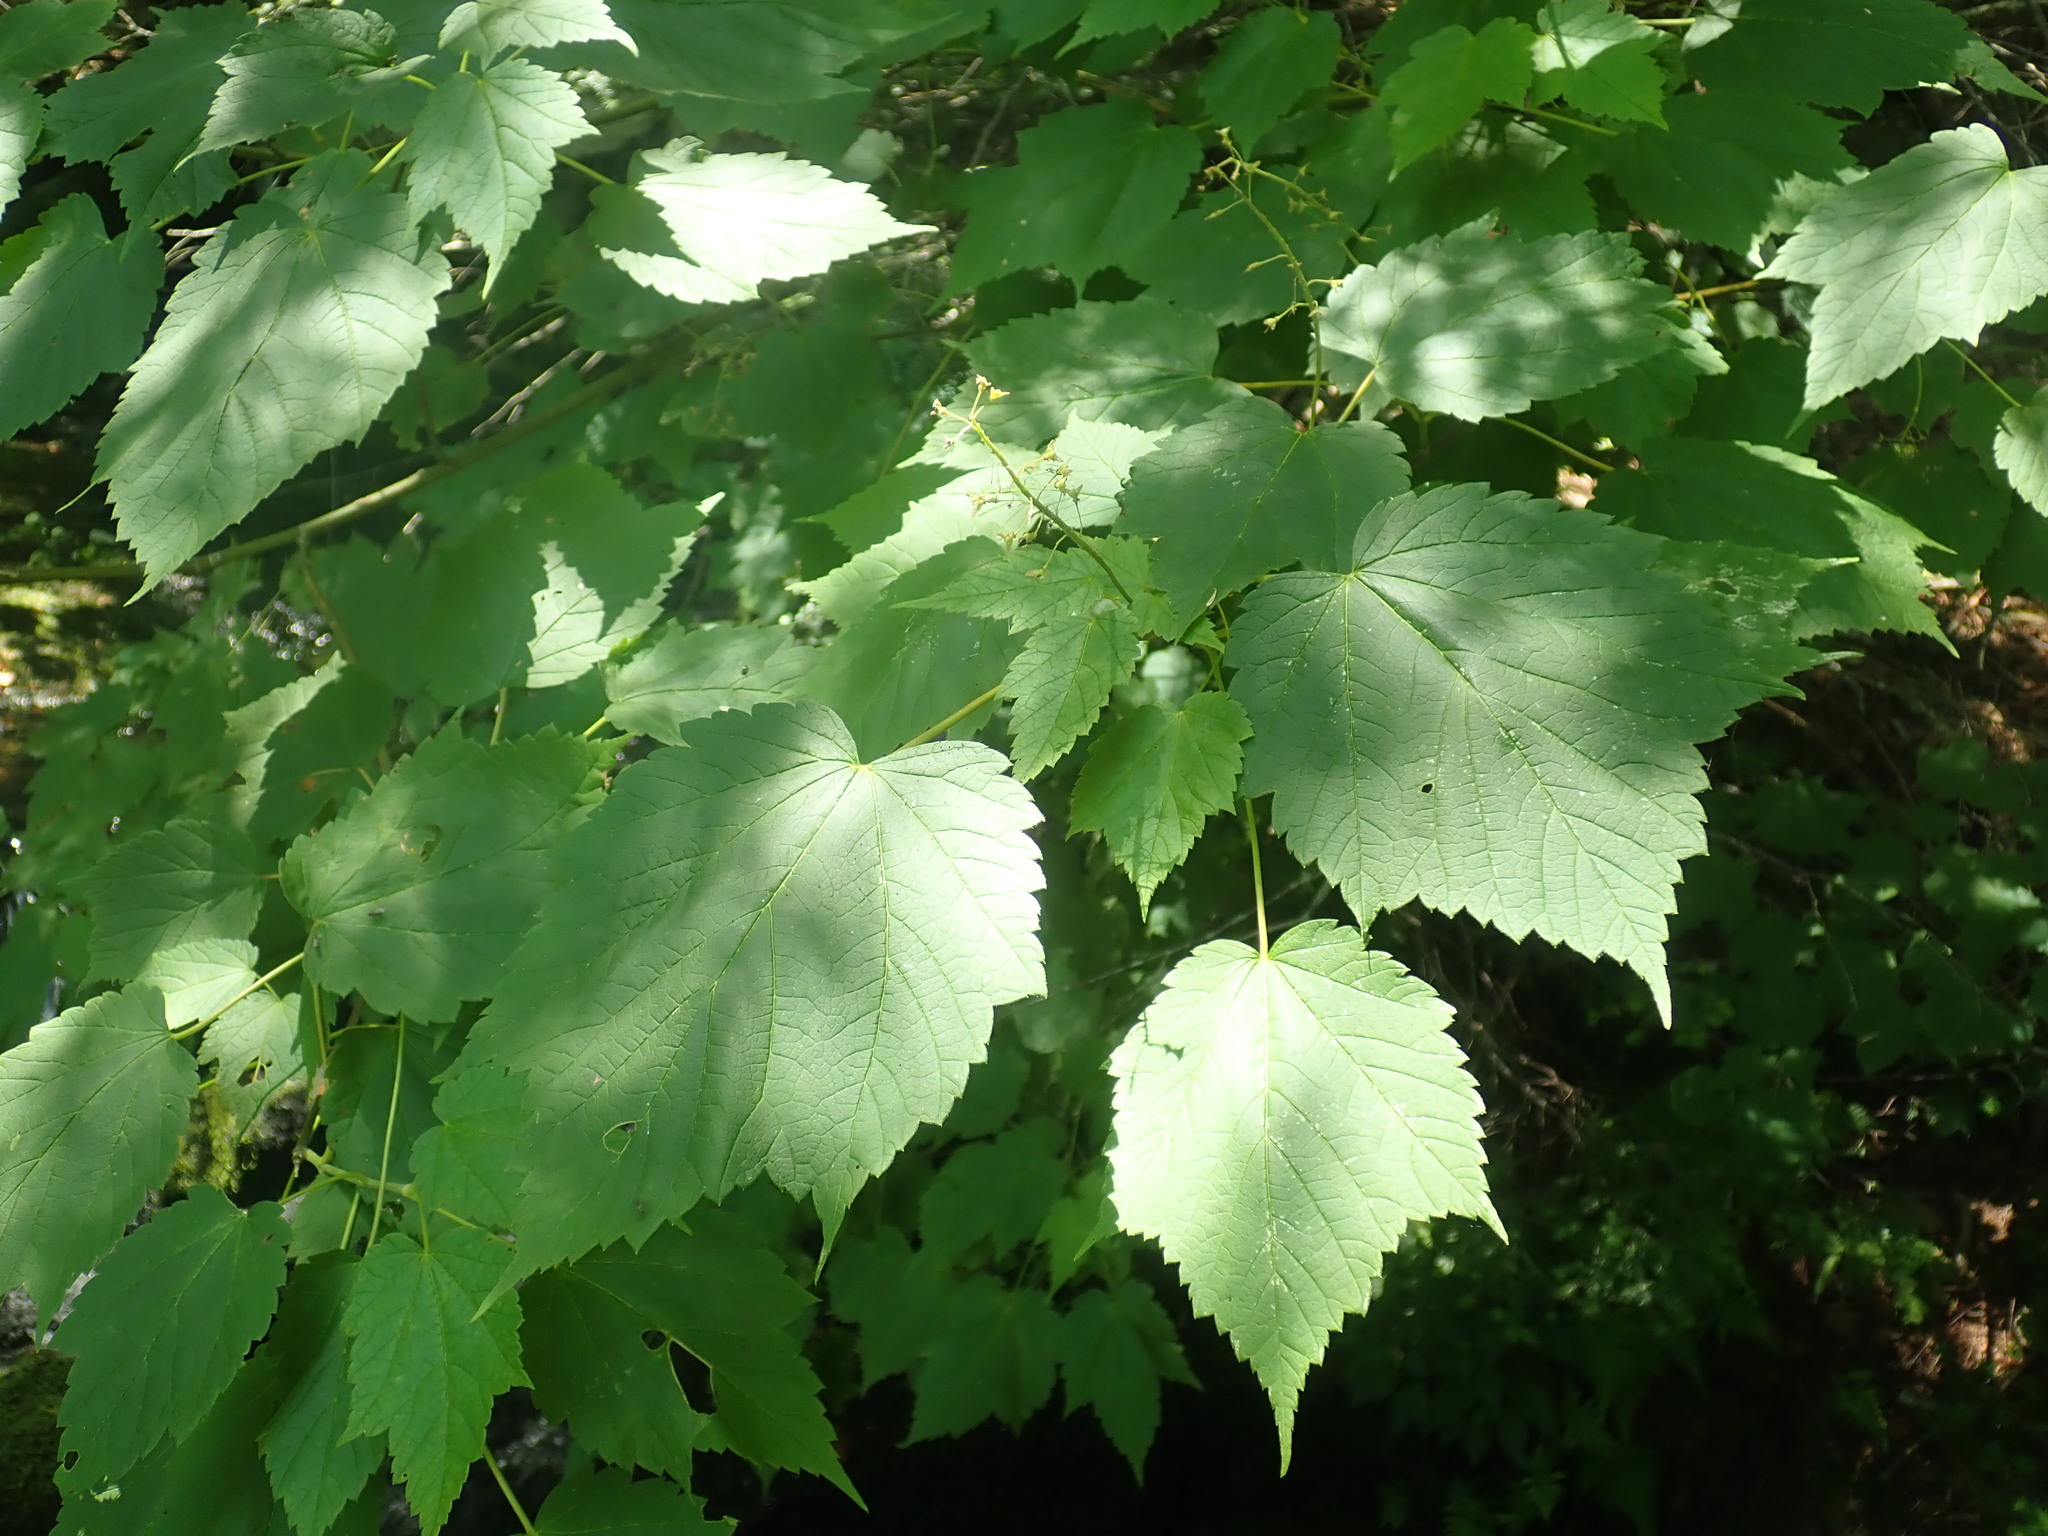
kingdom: Plantae
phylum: Tracheophyta
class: Magnoliopsida
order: Sapindales
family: Sapindaceae
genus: Acer
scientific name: Acer spicatum
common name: Mountain maple
